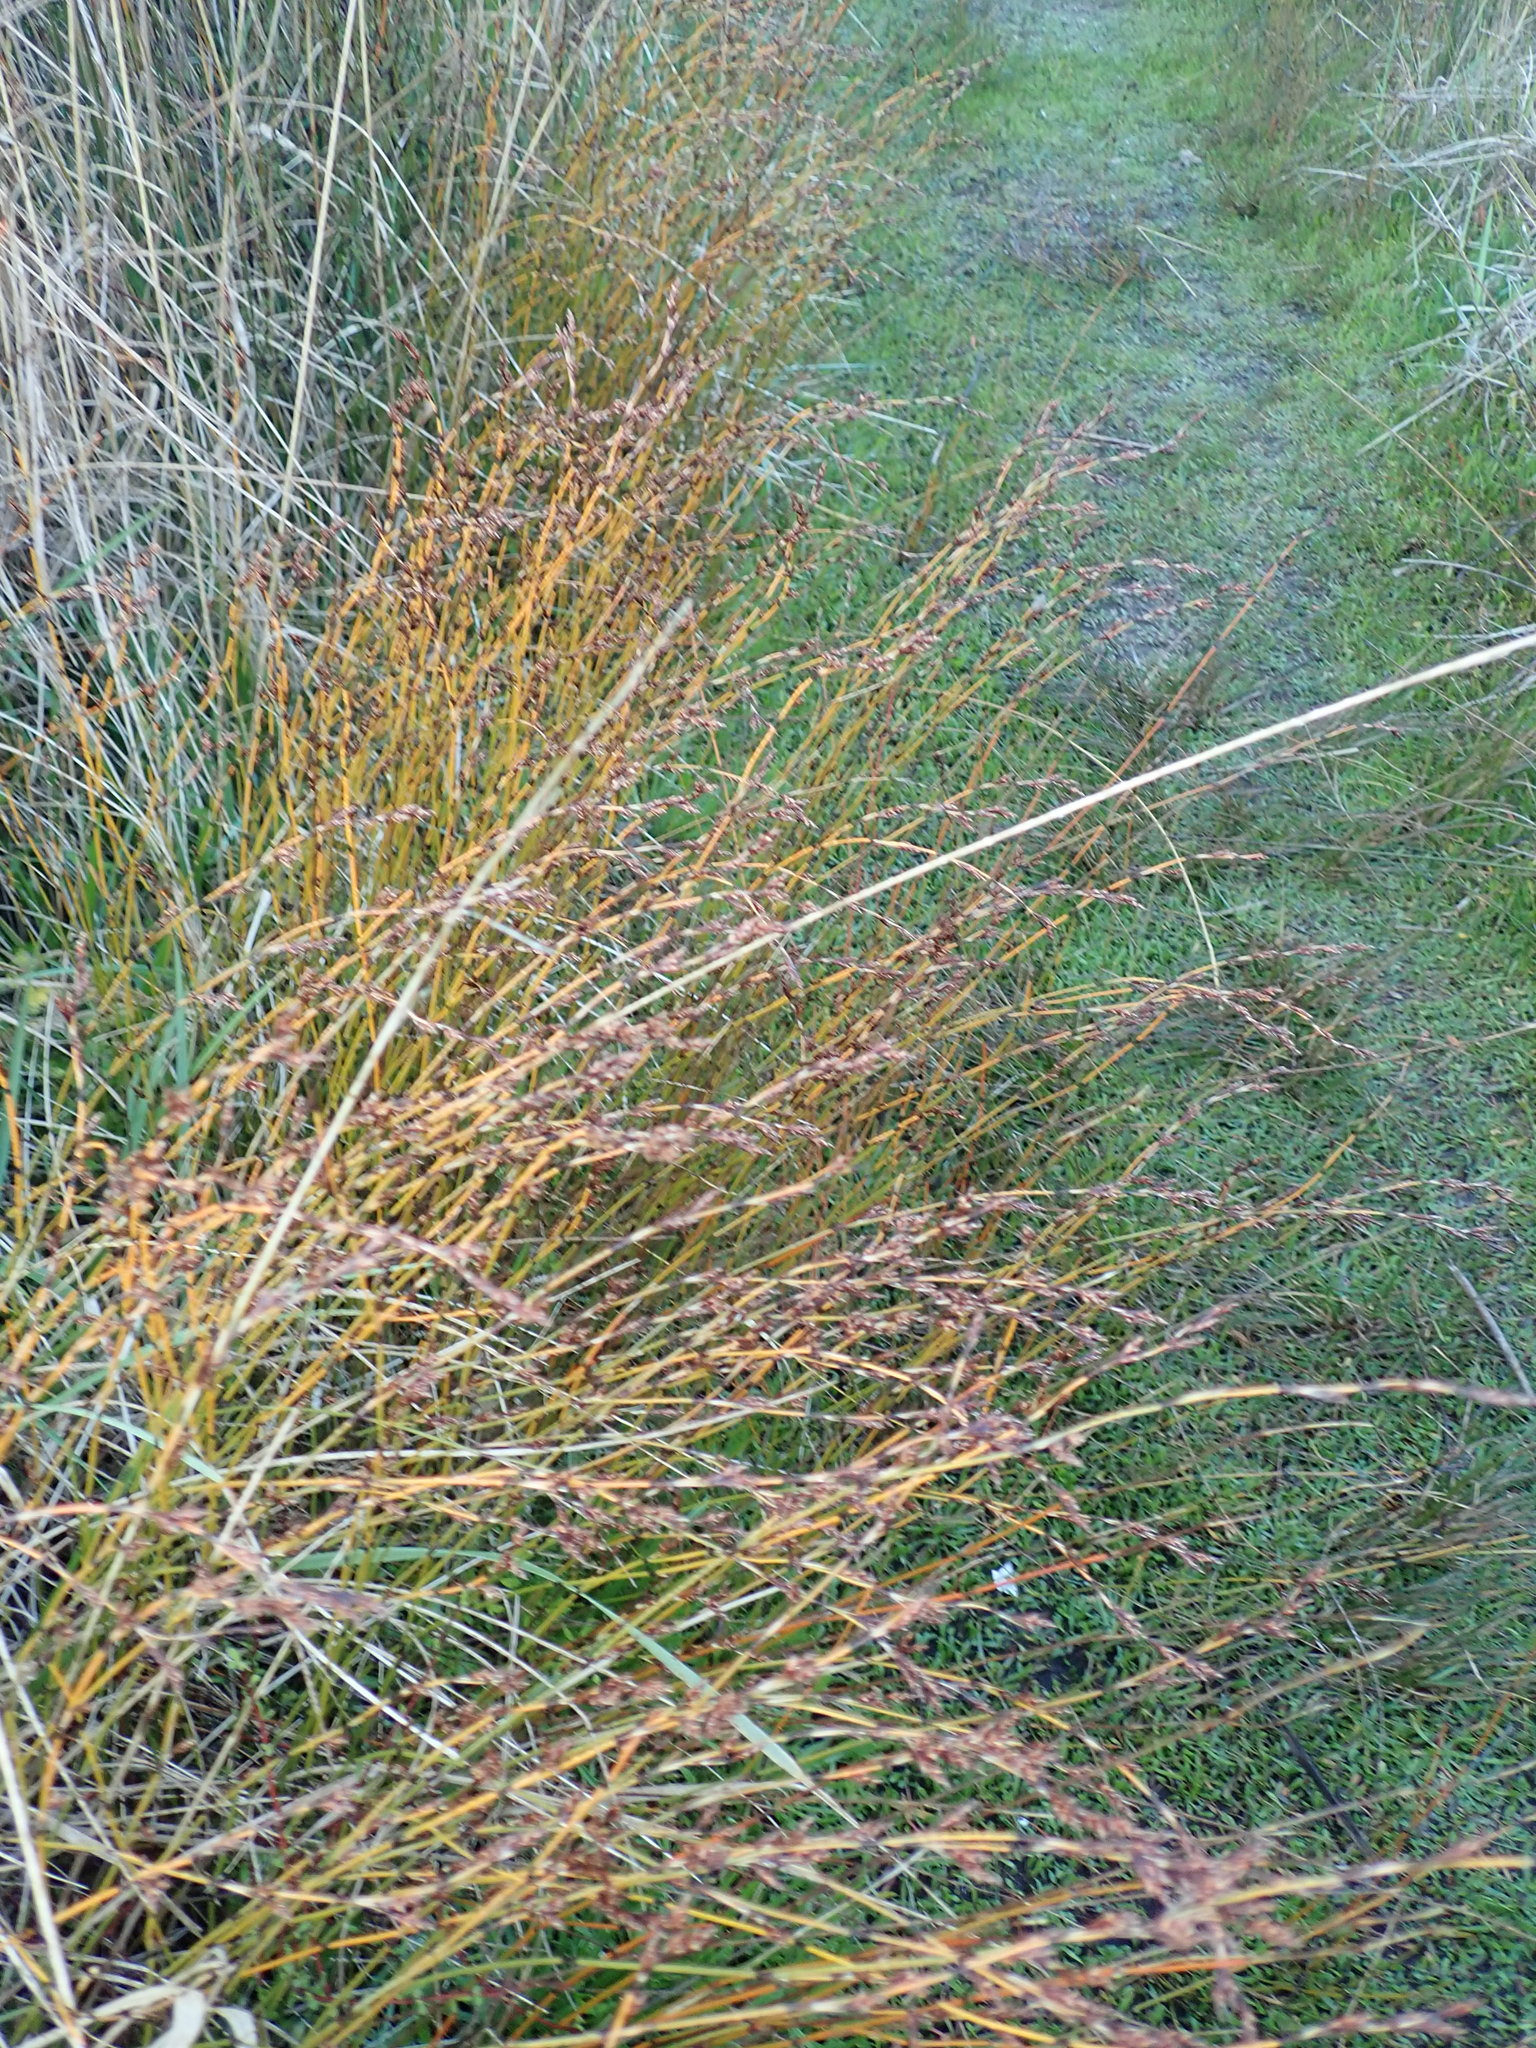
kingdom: Plantae
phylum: Tracheophyta
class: Liliopsida
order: Poales
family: Restionaceae
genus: Apodasmia
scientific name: Apodasmia similis
